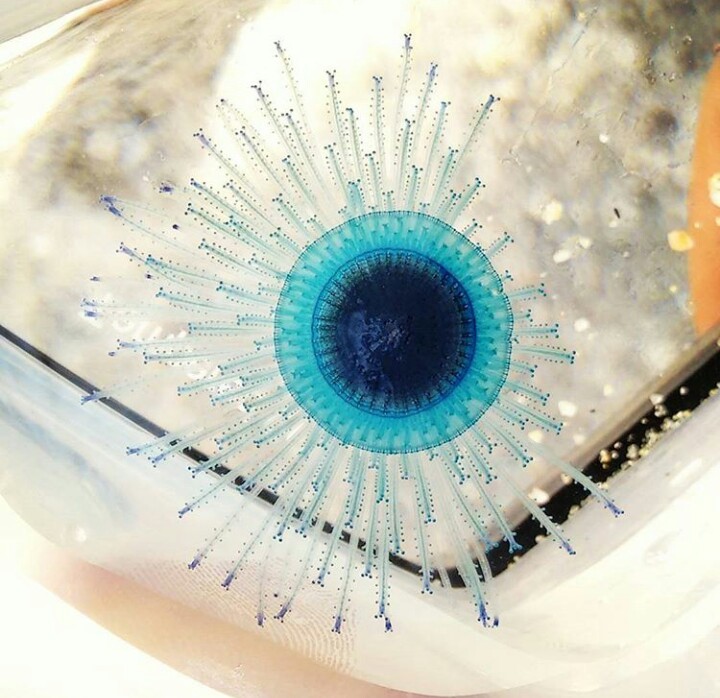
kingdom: Animalia
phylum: Cnidaria
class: Hydrozoa
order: Anthoathecata
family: Porpitidae
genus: Porpita
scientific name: Porpita porpita
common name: Blue button
